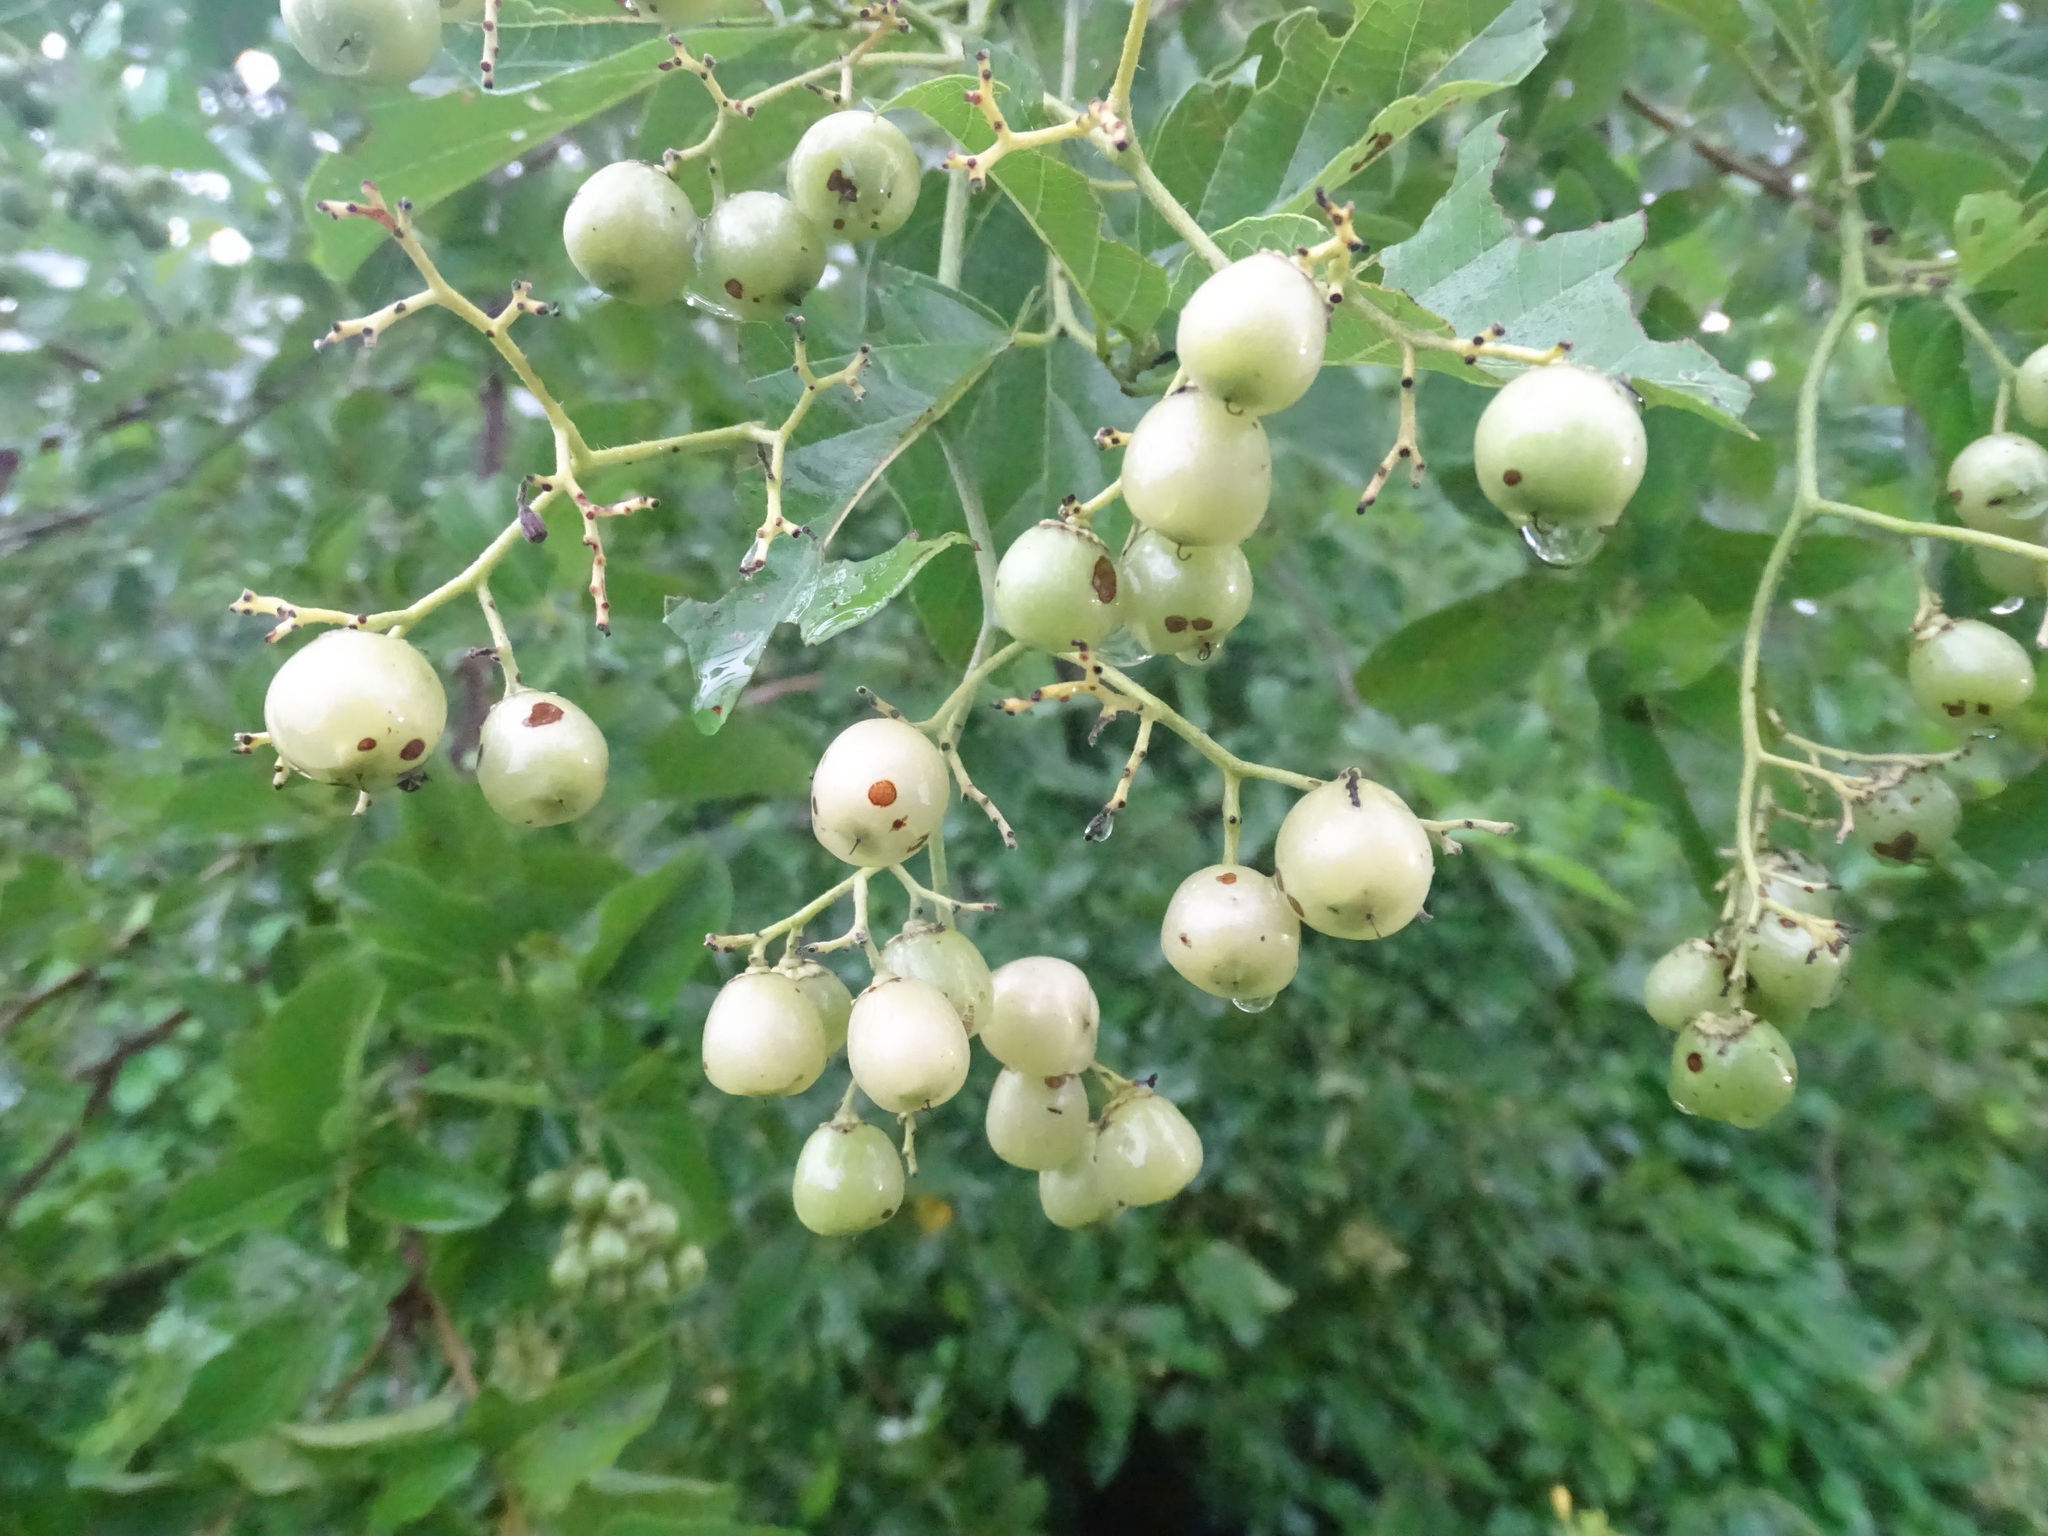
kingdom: Plantae
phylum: Tracheophyta
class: Magnoliopsida
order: Boraginales
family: Cordiaceae
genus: Cordia
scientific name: Cordia dentata
